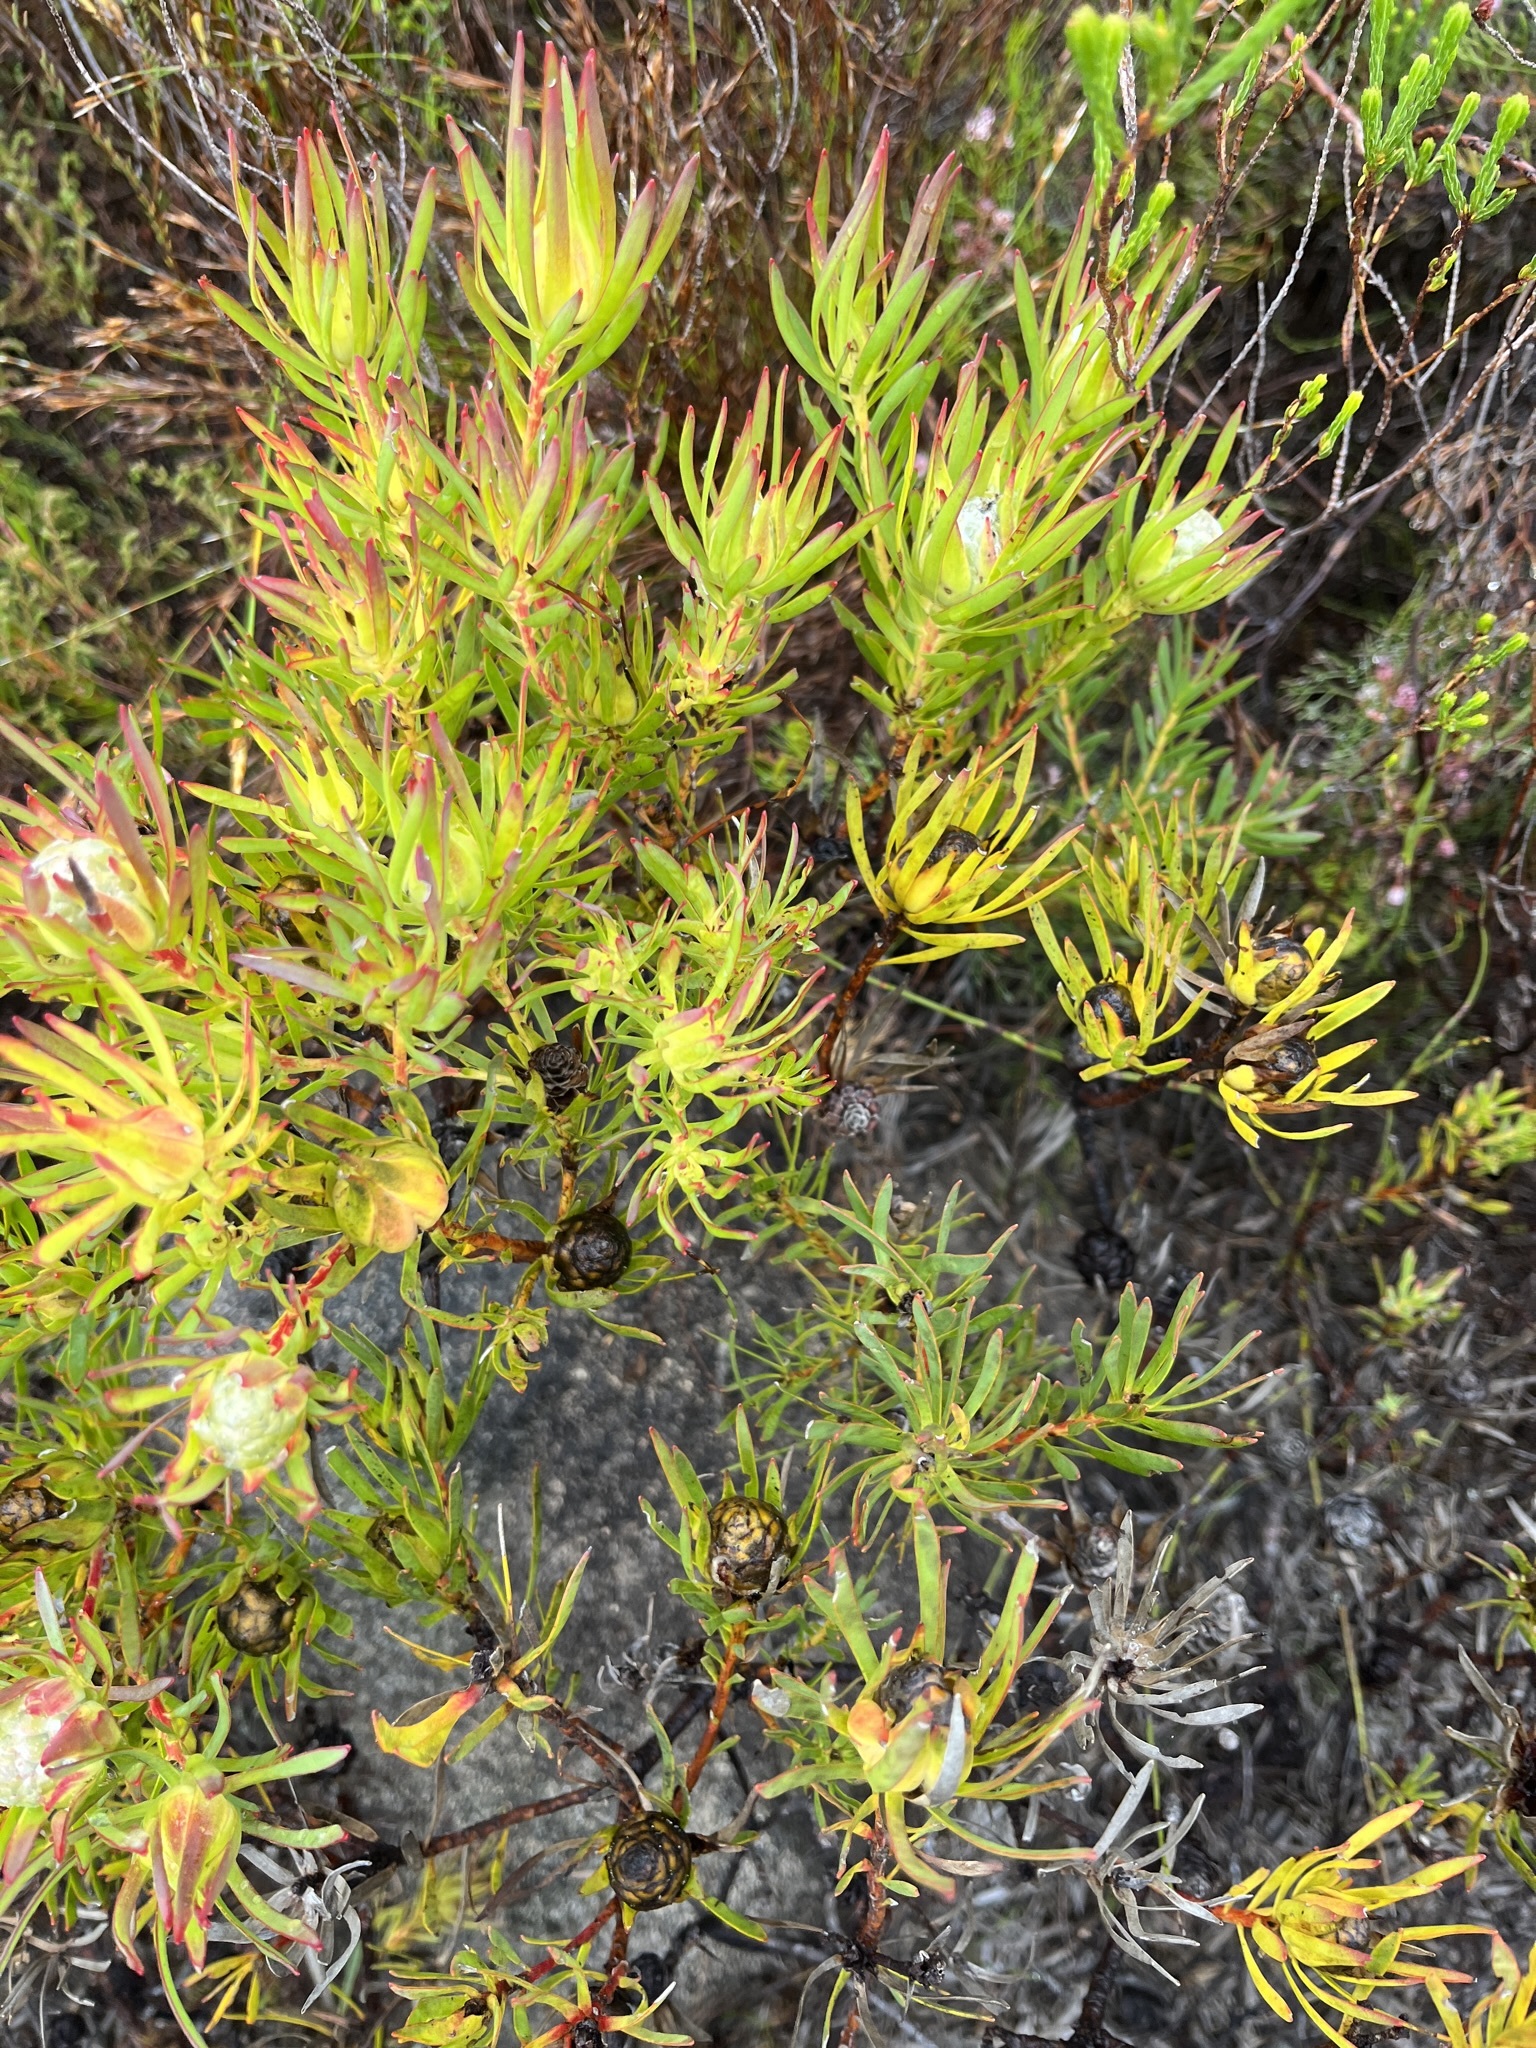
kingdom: Plantae
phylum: Tracheophyta
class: Magnoliopsida
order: Proteales
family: Proteaceae
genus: Leucadendron
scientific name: Leucadendron salignum
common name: Common sunshine conebush
